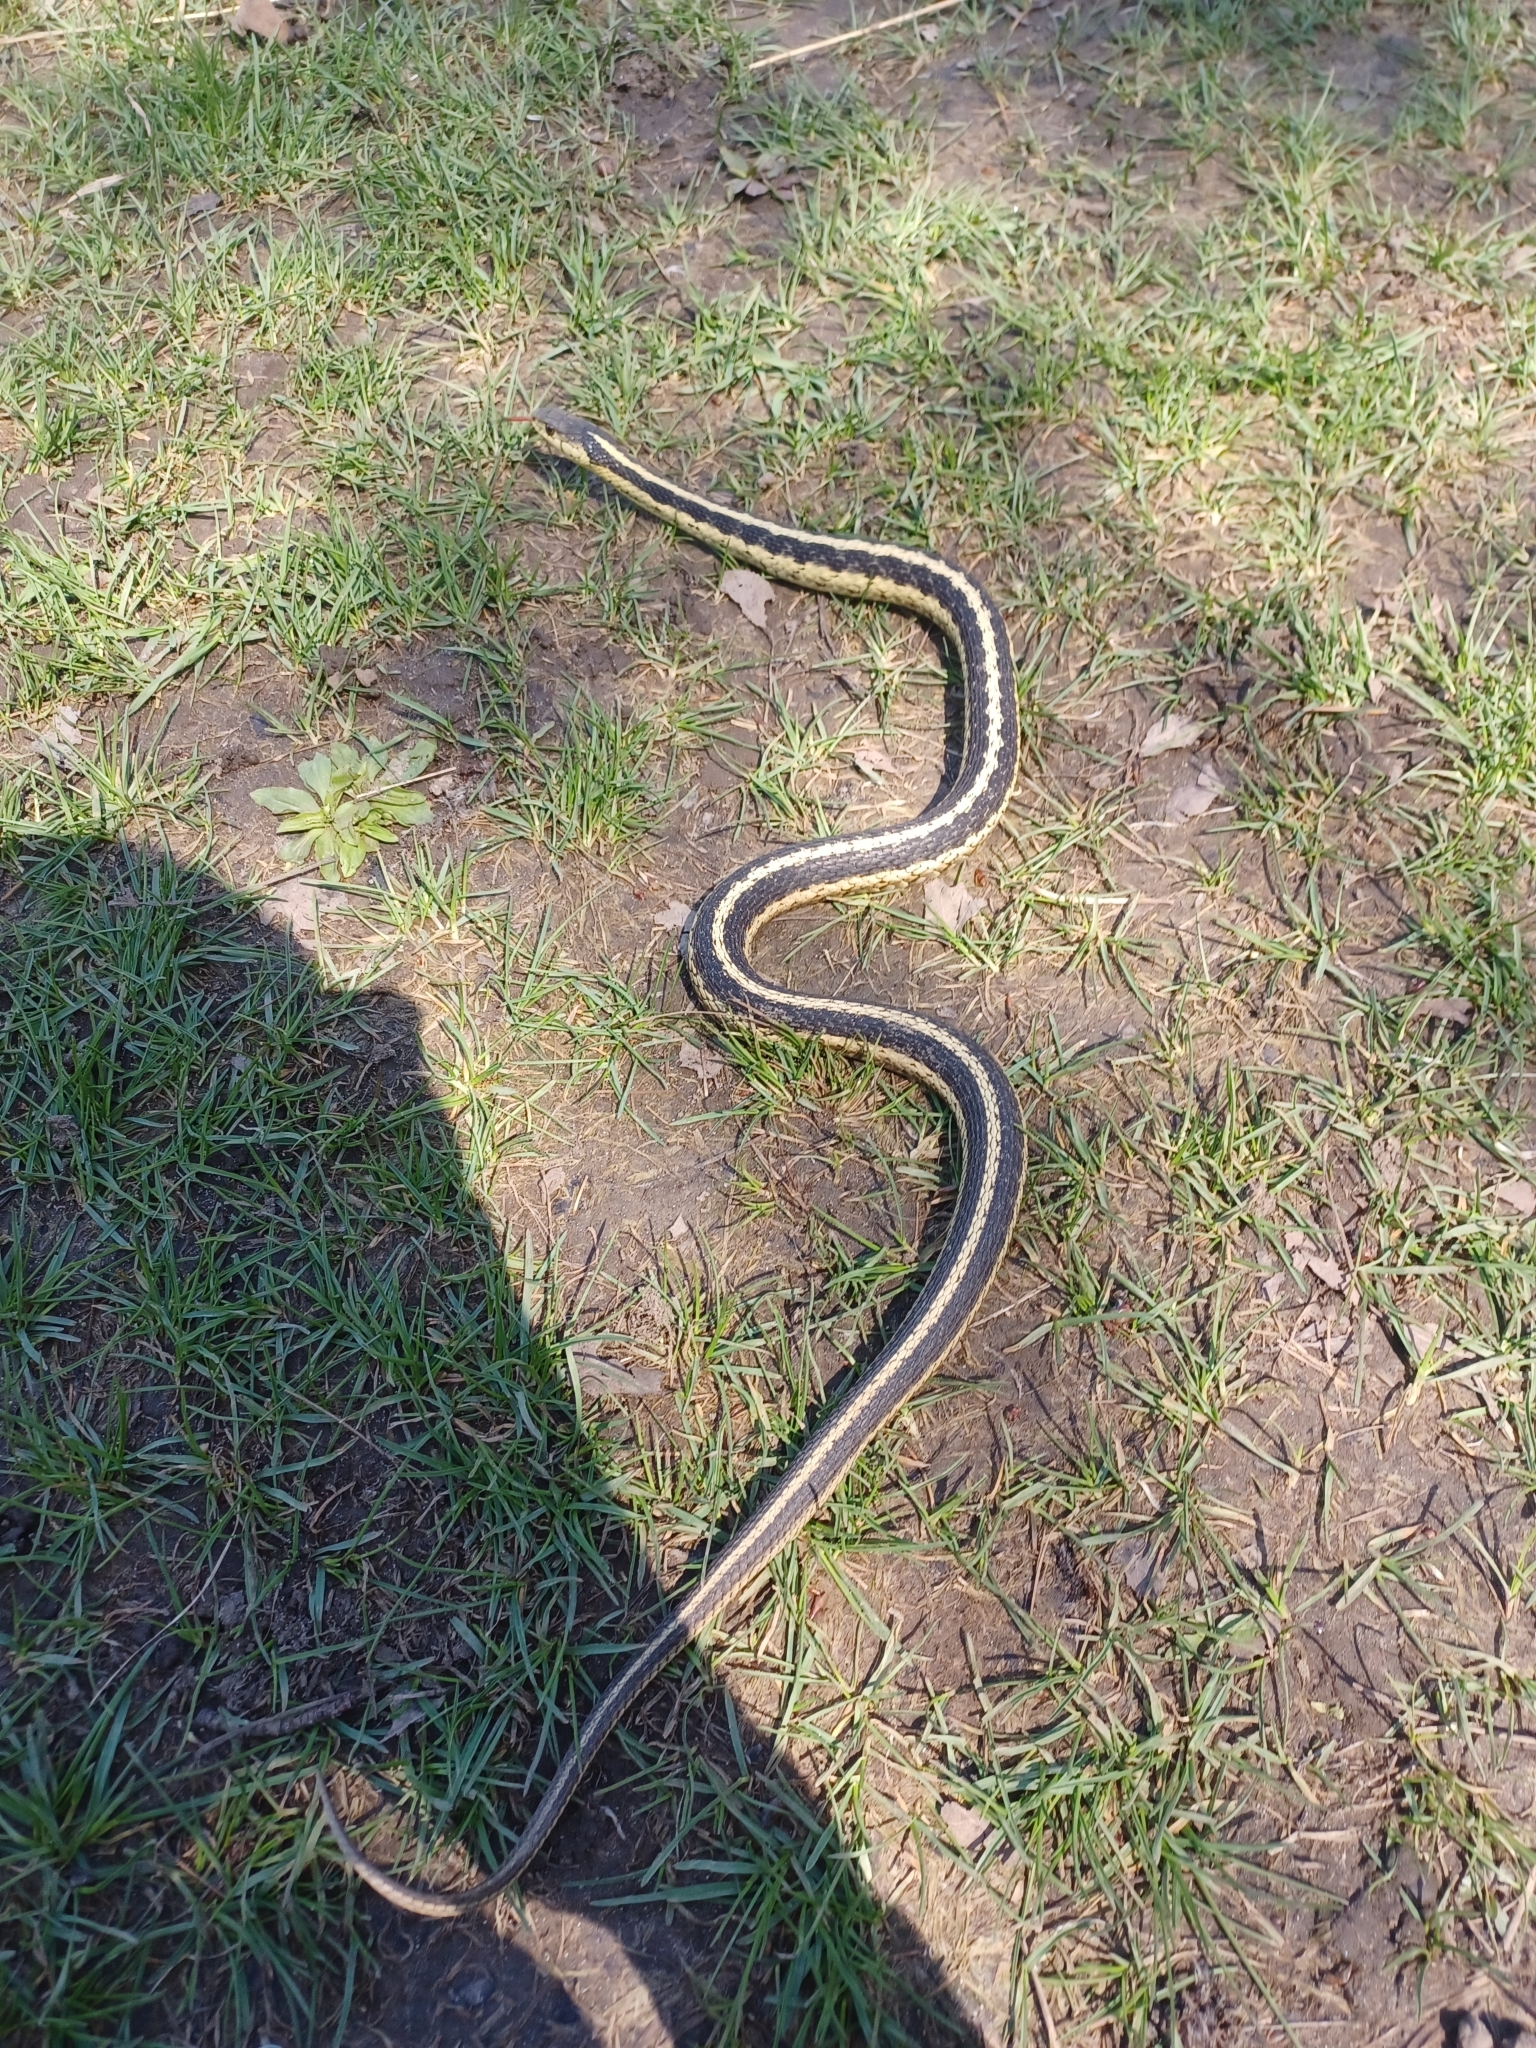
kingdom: Animalia
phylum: Chordata
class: Squamata
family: Colubridae
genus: Thamnophis
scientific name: Thamnophis sirtalis
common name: Common garter snake
